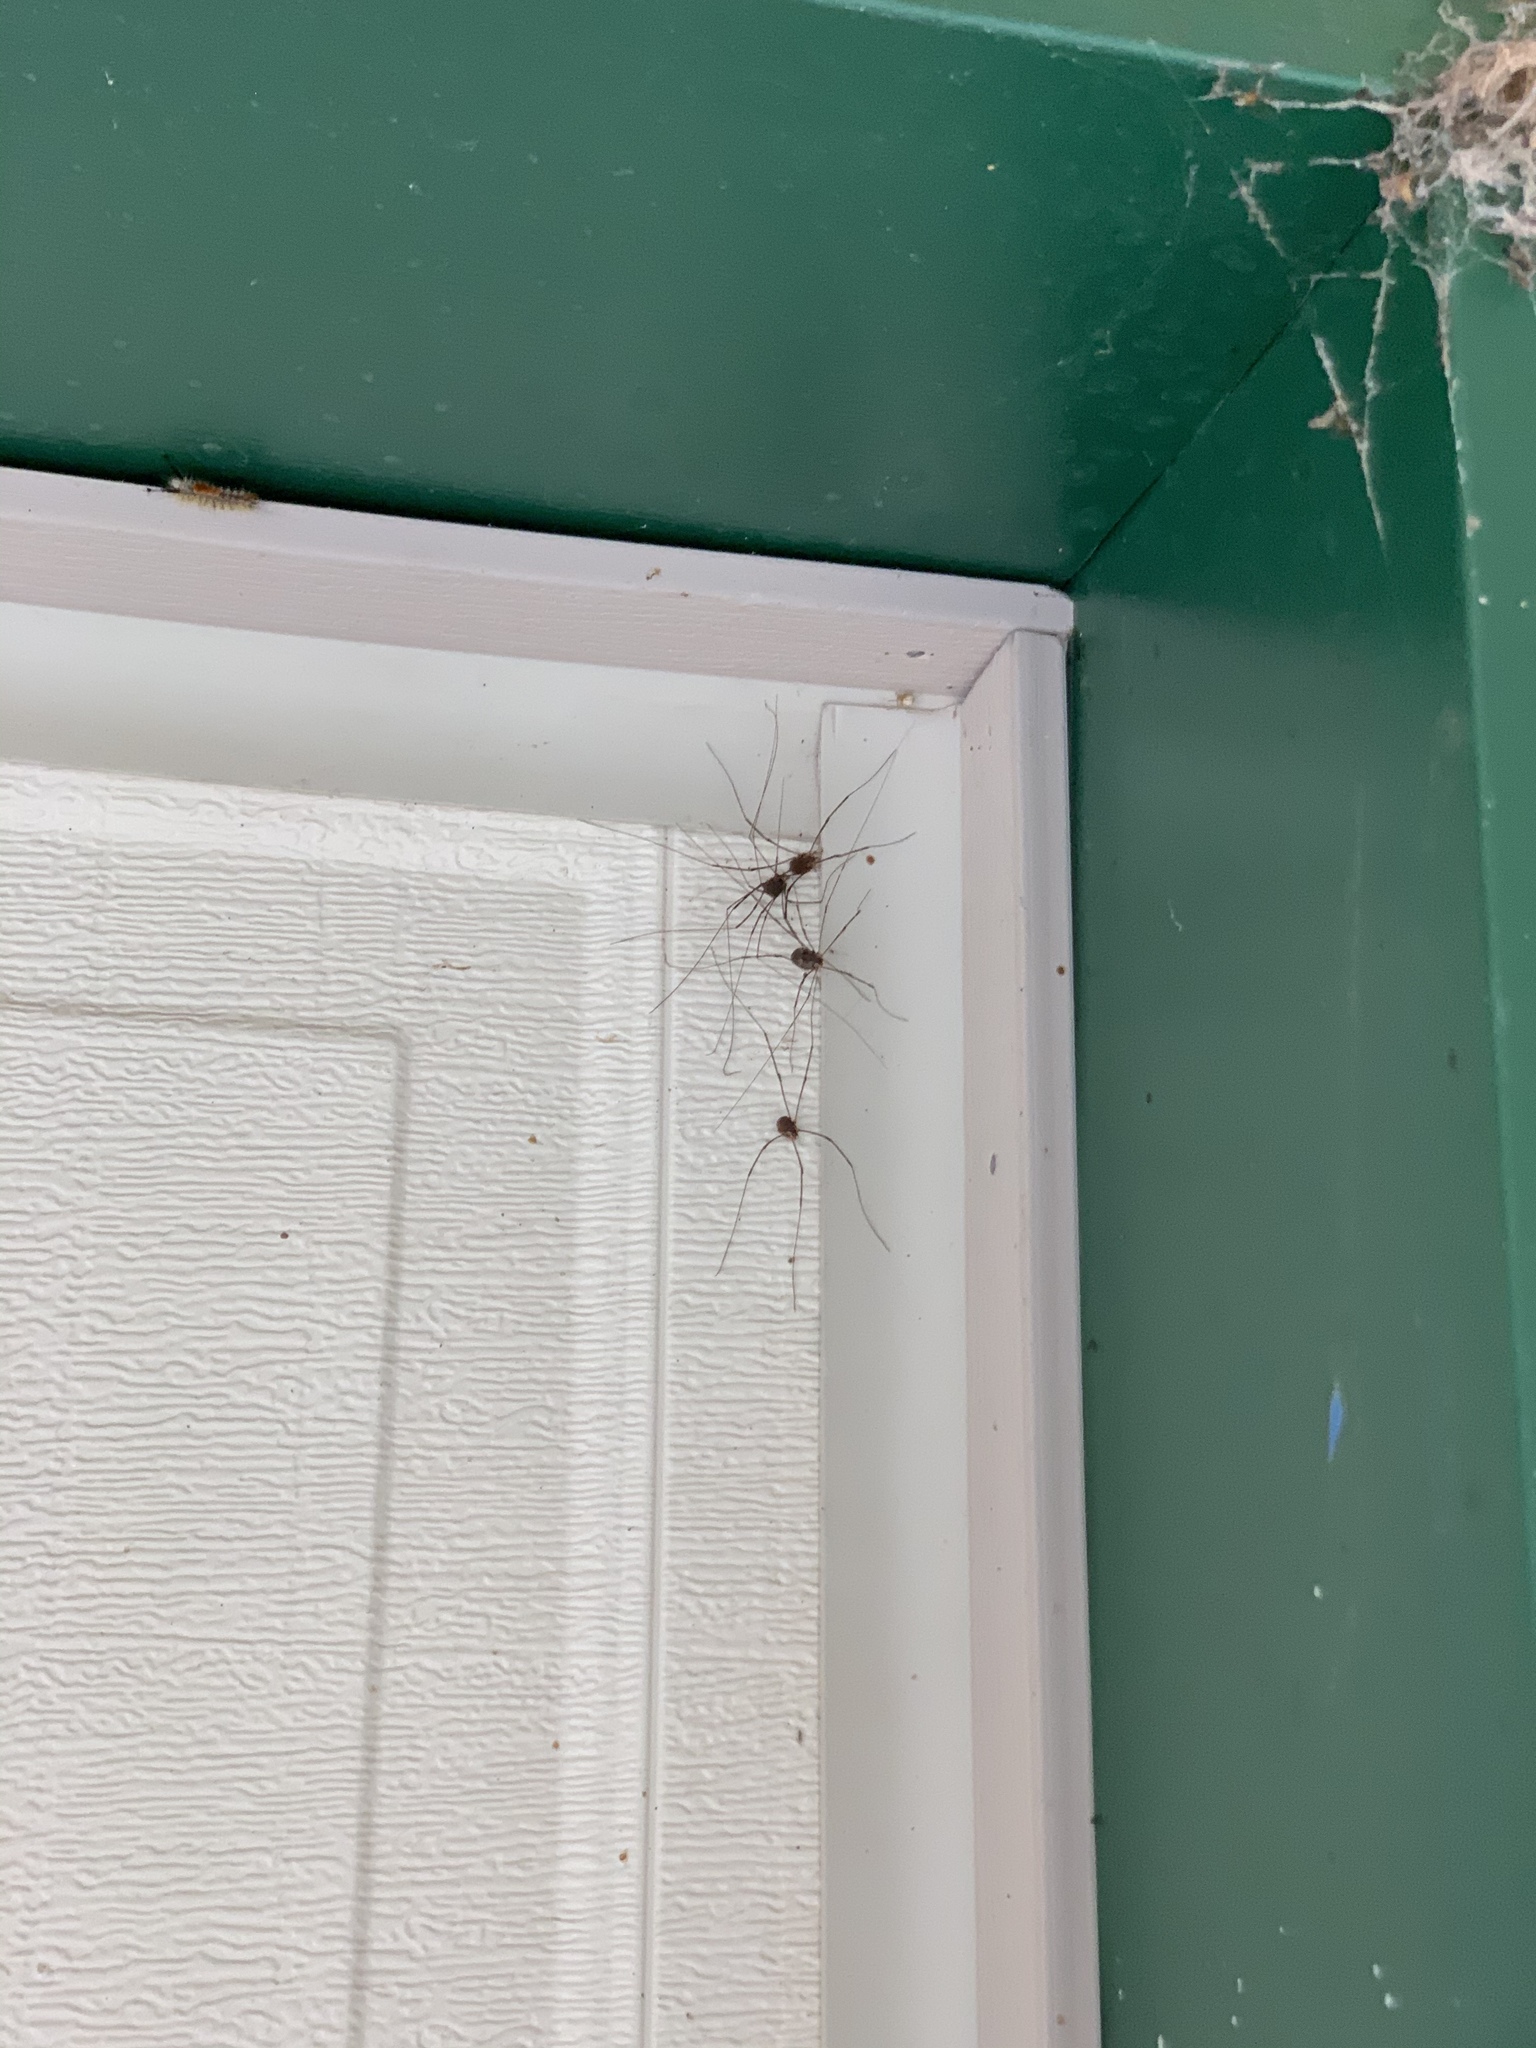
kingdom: Animalia
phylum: Arthropoda
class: Arachnida
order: Opiliones
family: Sclerosomatidae
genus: Leiobunum
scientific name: Leiobunum townsendi
